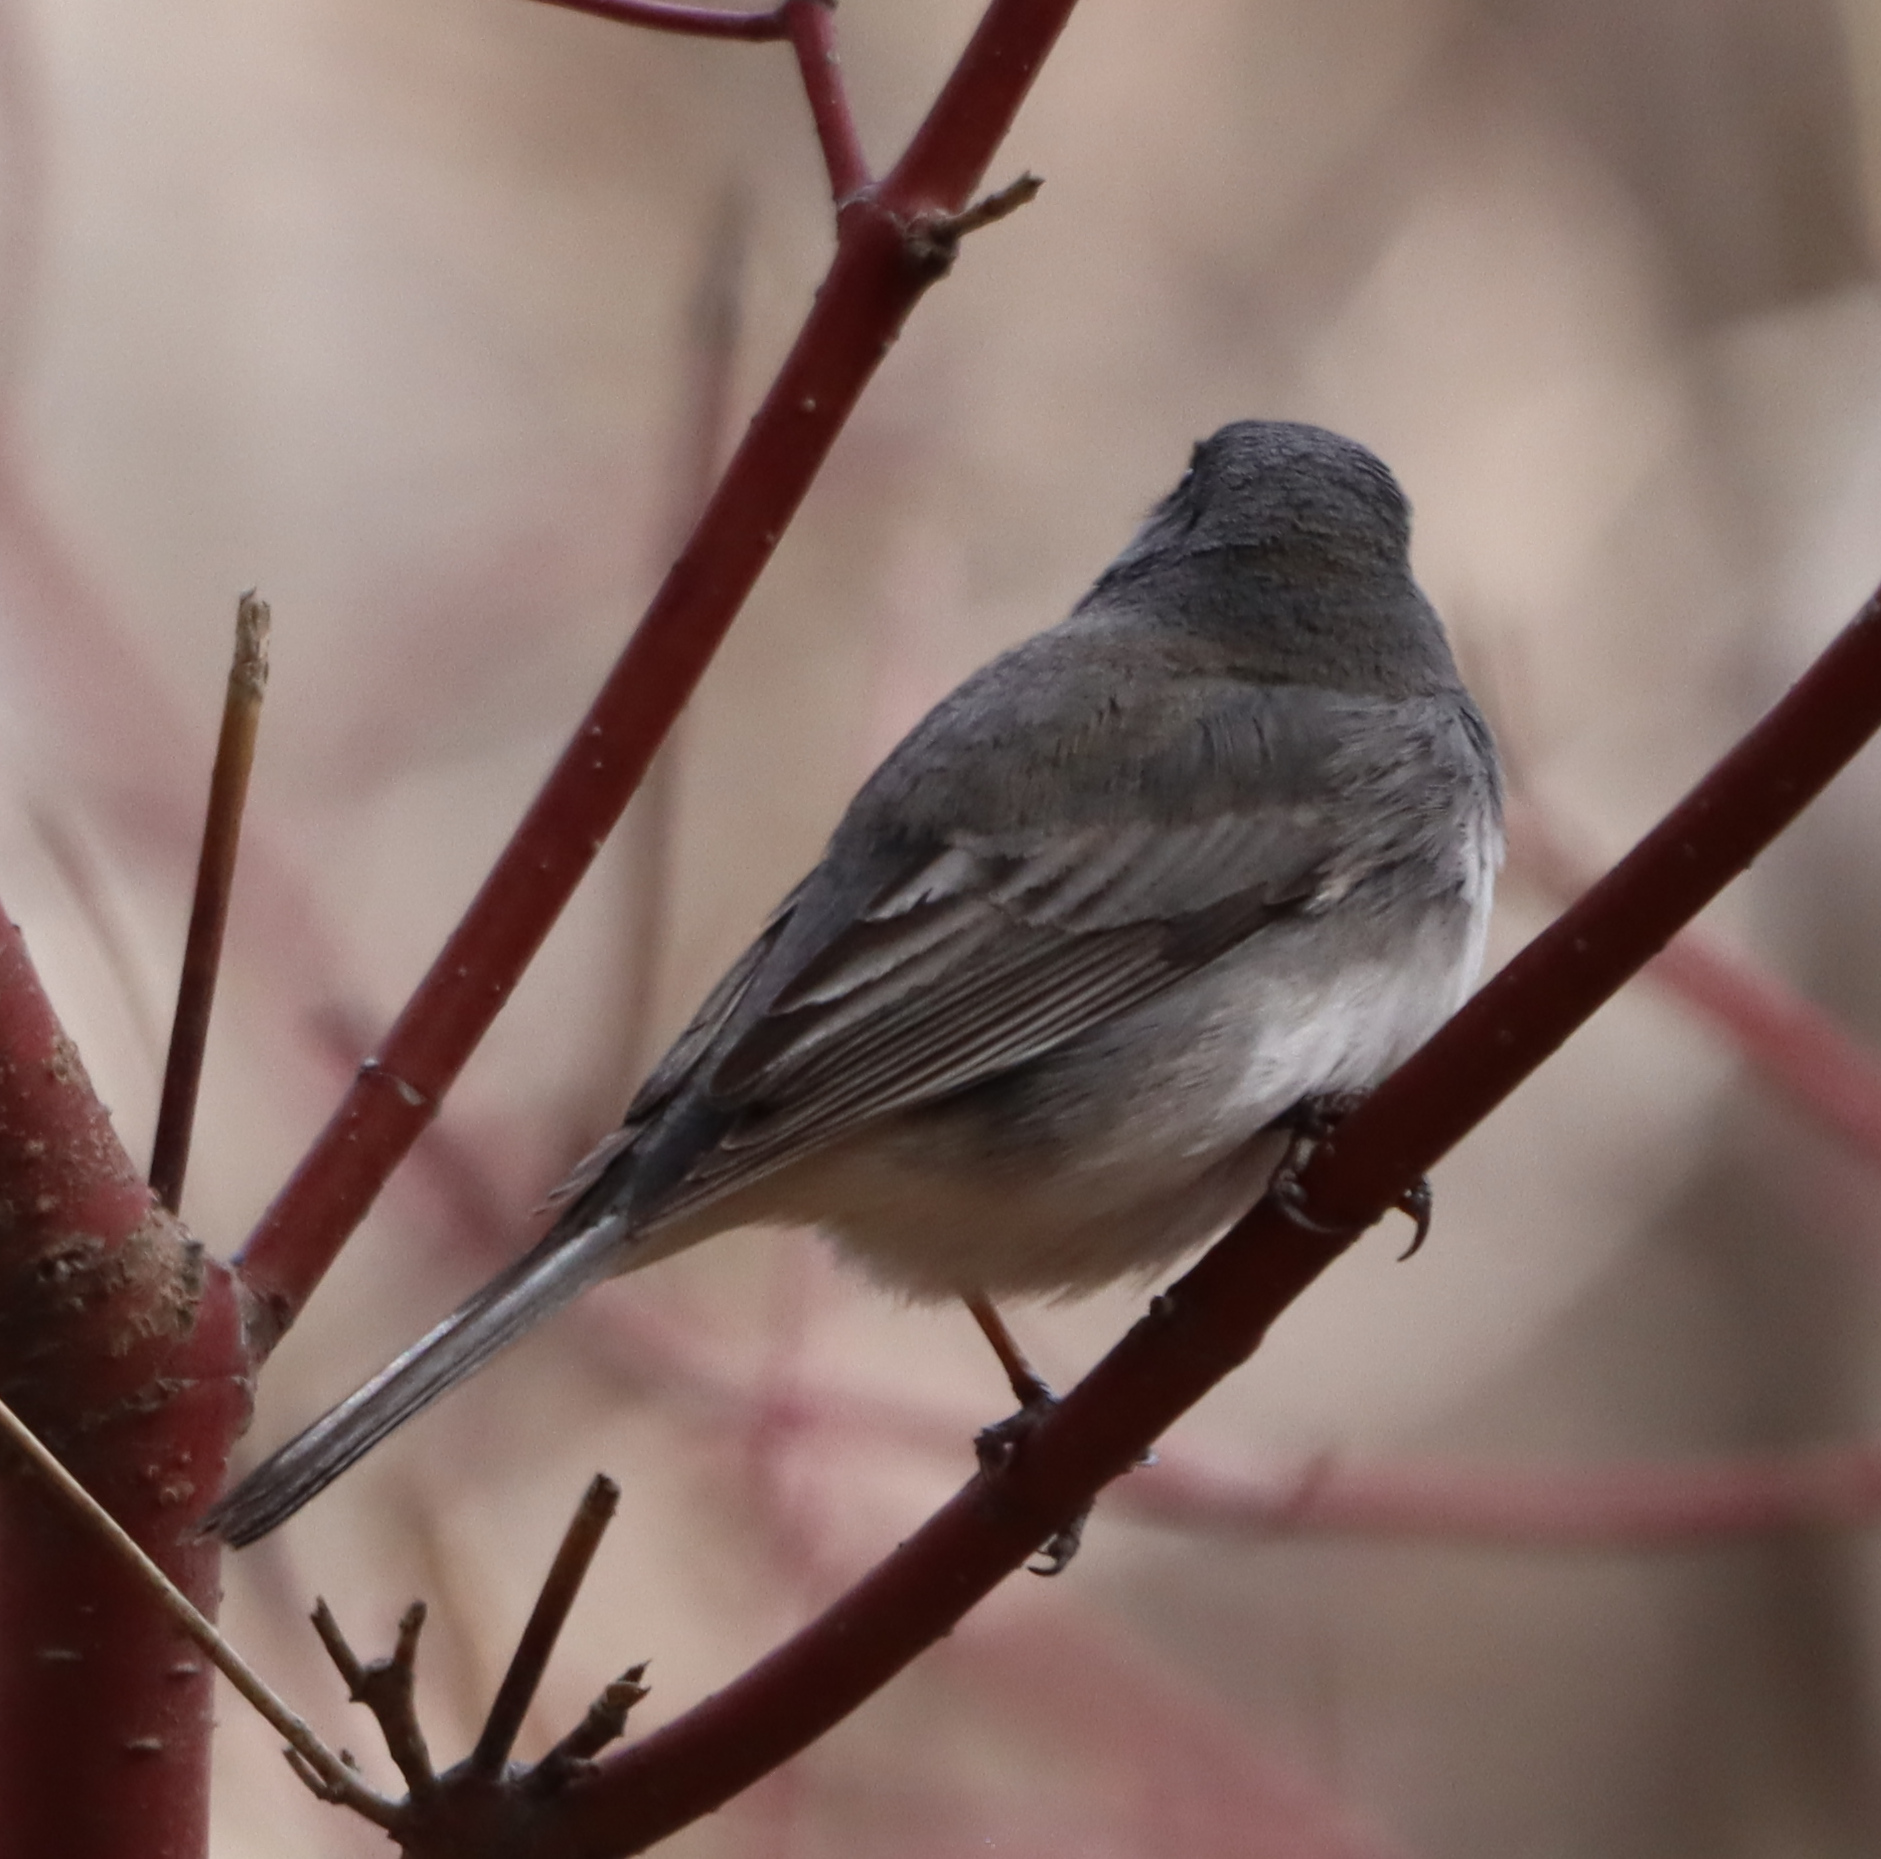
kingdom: Animalia
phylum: Chordata
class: Aves
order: Passeriformes
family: Passerellidae
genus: Junco
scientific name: Junco hyemalis
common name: Dark-eyed junco
